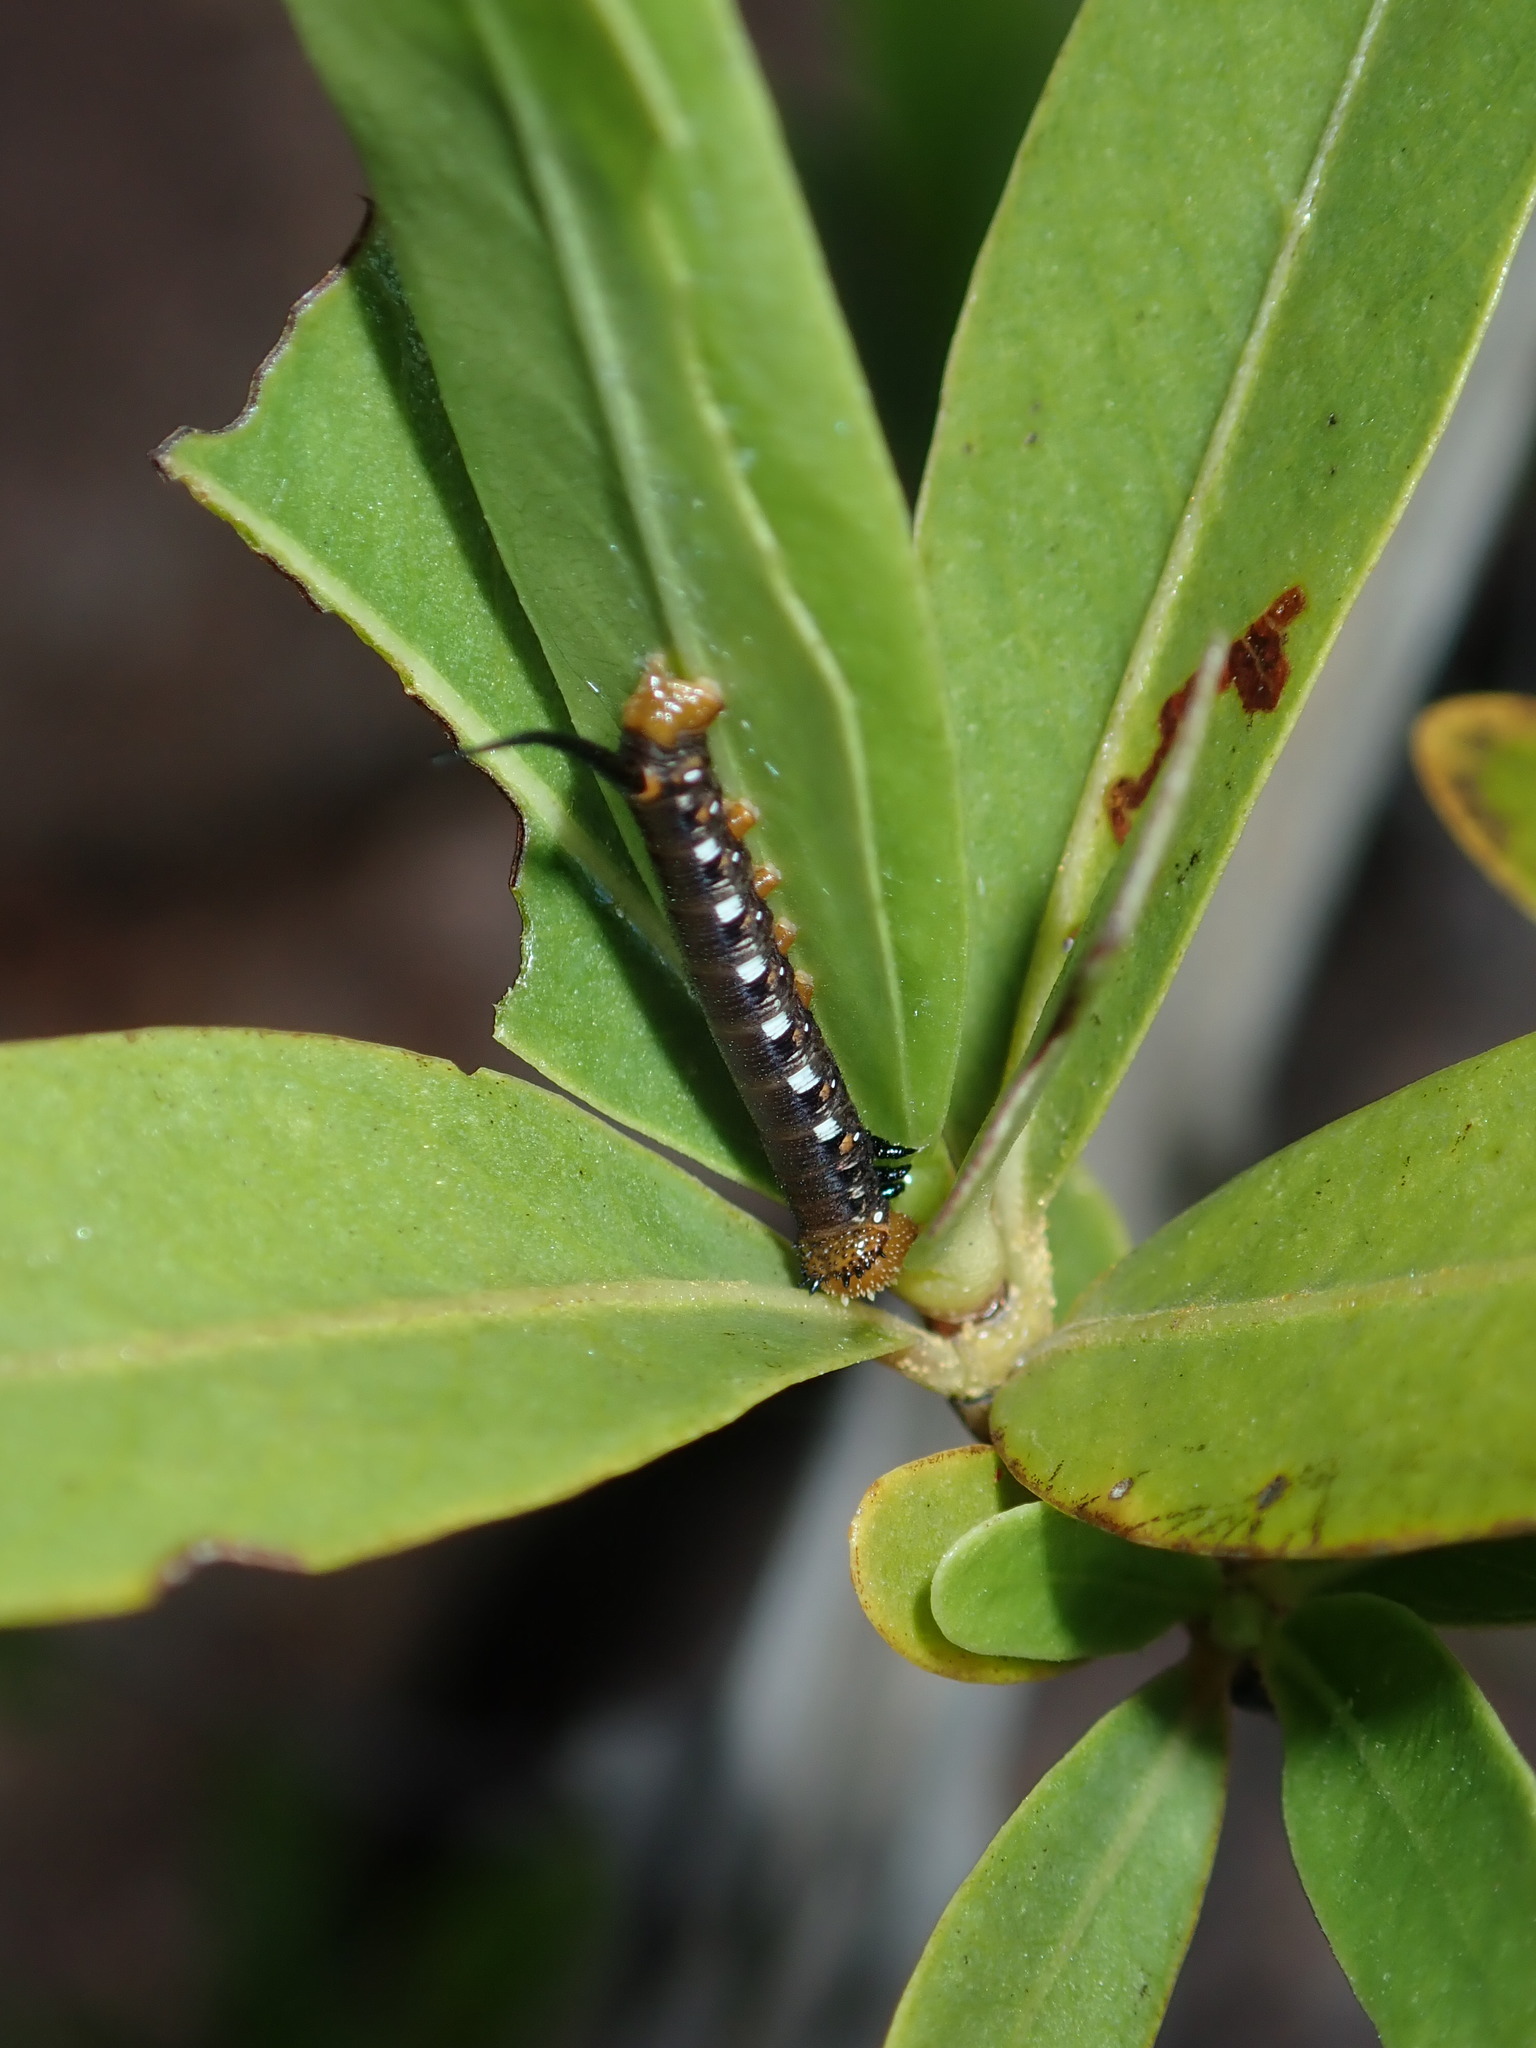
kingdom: Animalia
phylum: Arthropoda
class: Insecta
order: Lepidoptera
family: Sphingidae
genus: Cephonodes
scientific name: Cephonodes kingii
